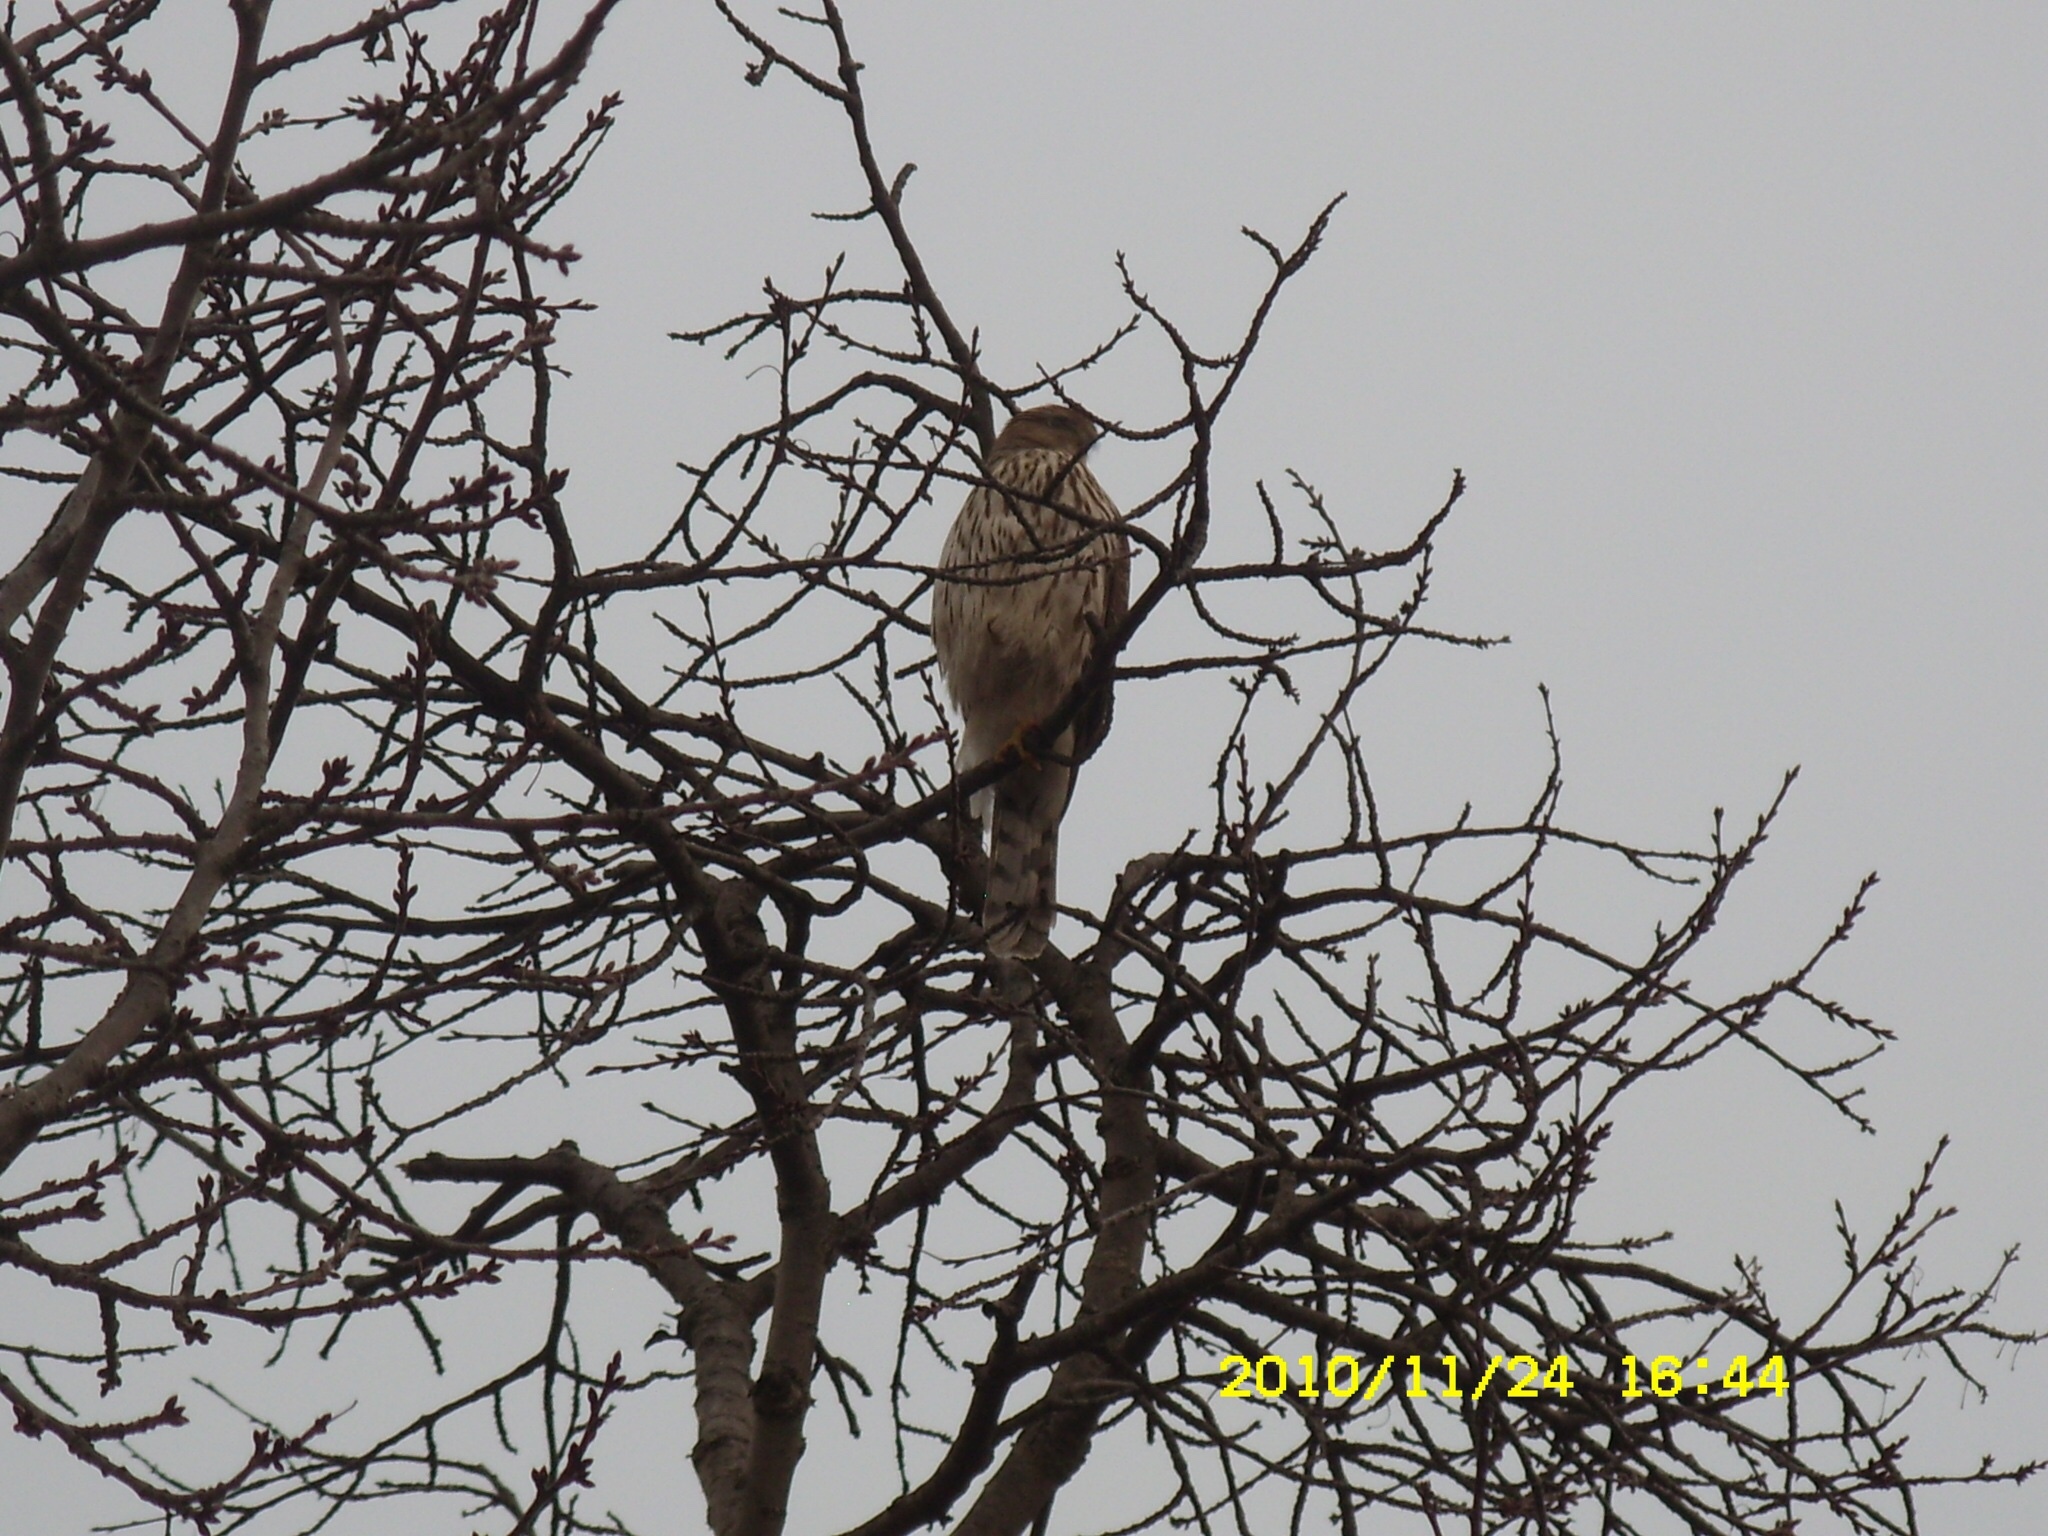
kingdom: Animalia
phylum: Chordata
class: Aves
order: Accipitriformes
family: Accipitridae
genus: Accipiter
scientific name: Accipiter cooperii
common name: Cooper's hawk
